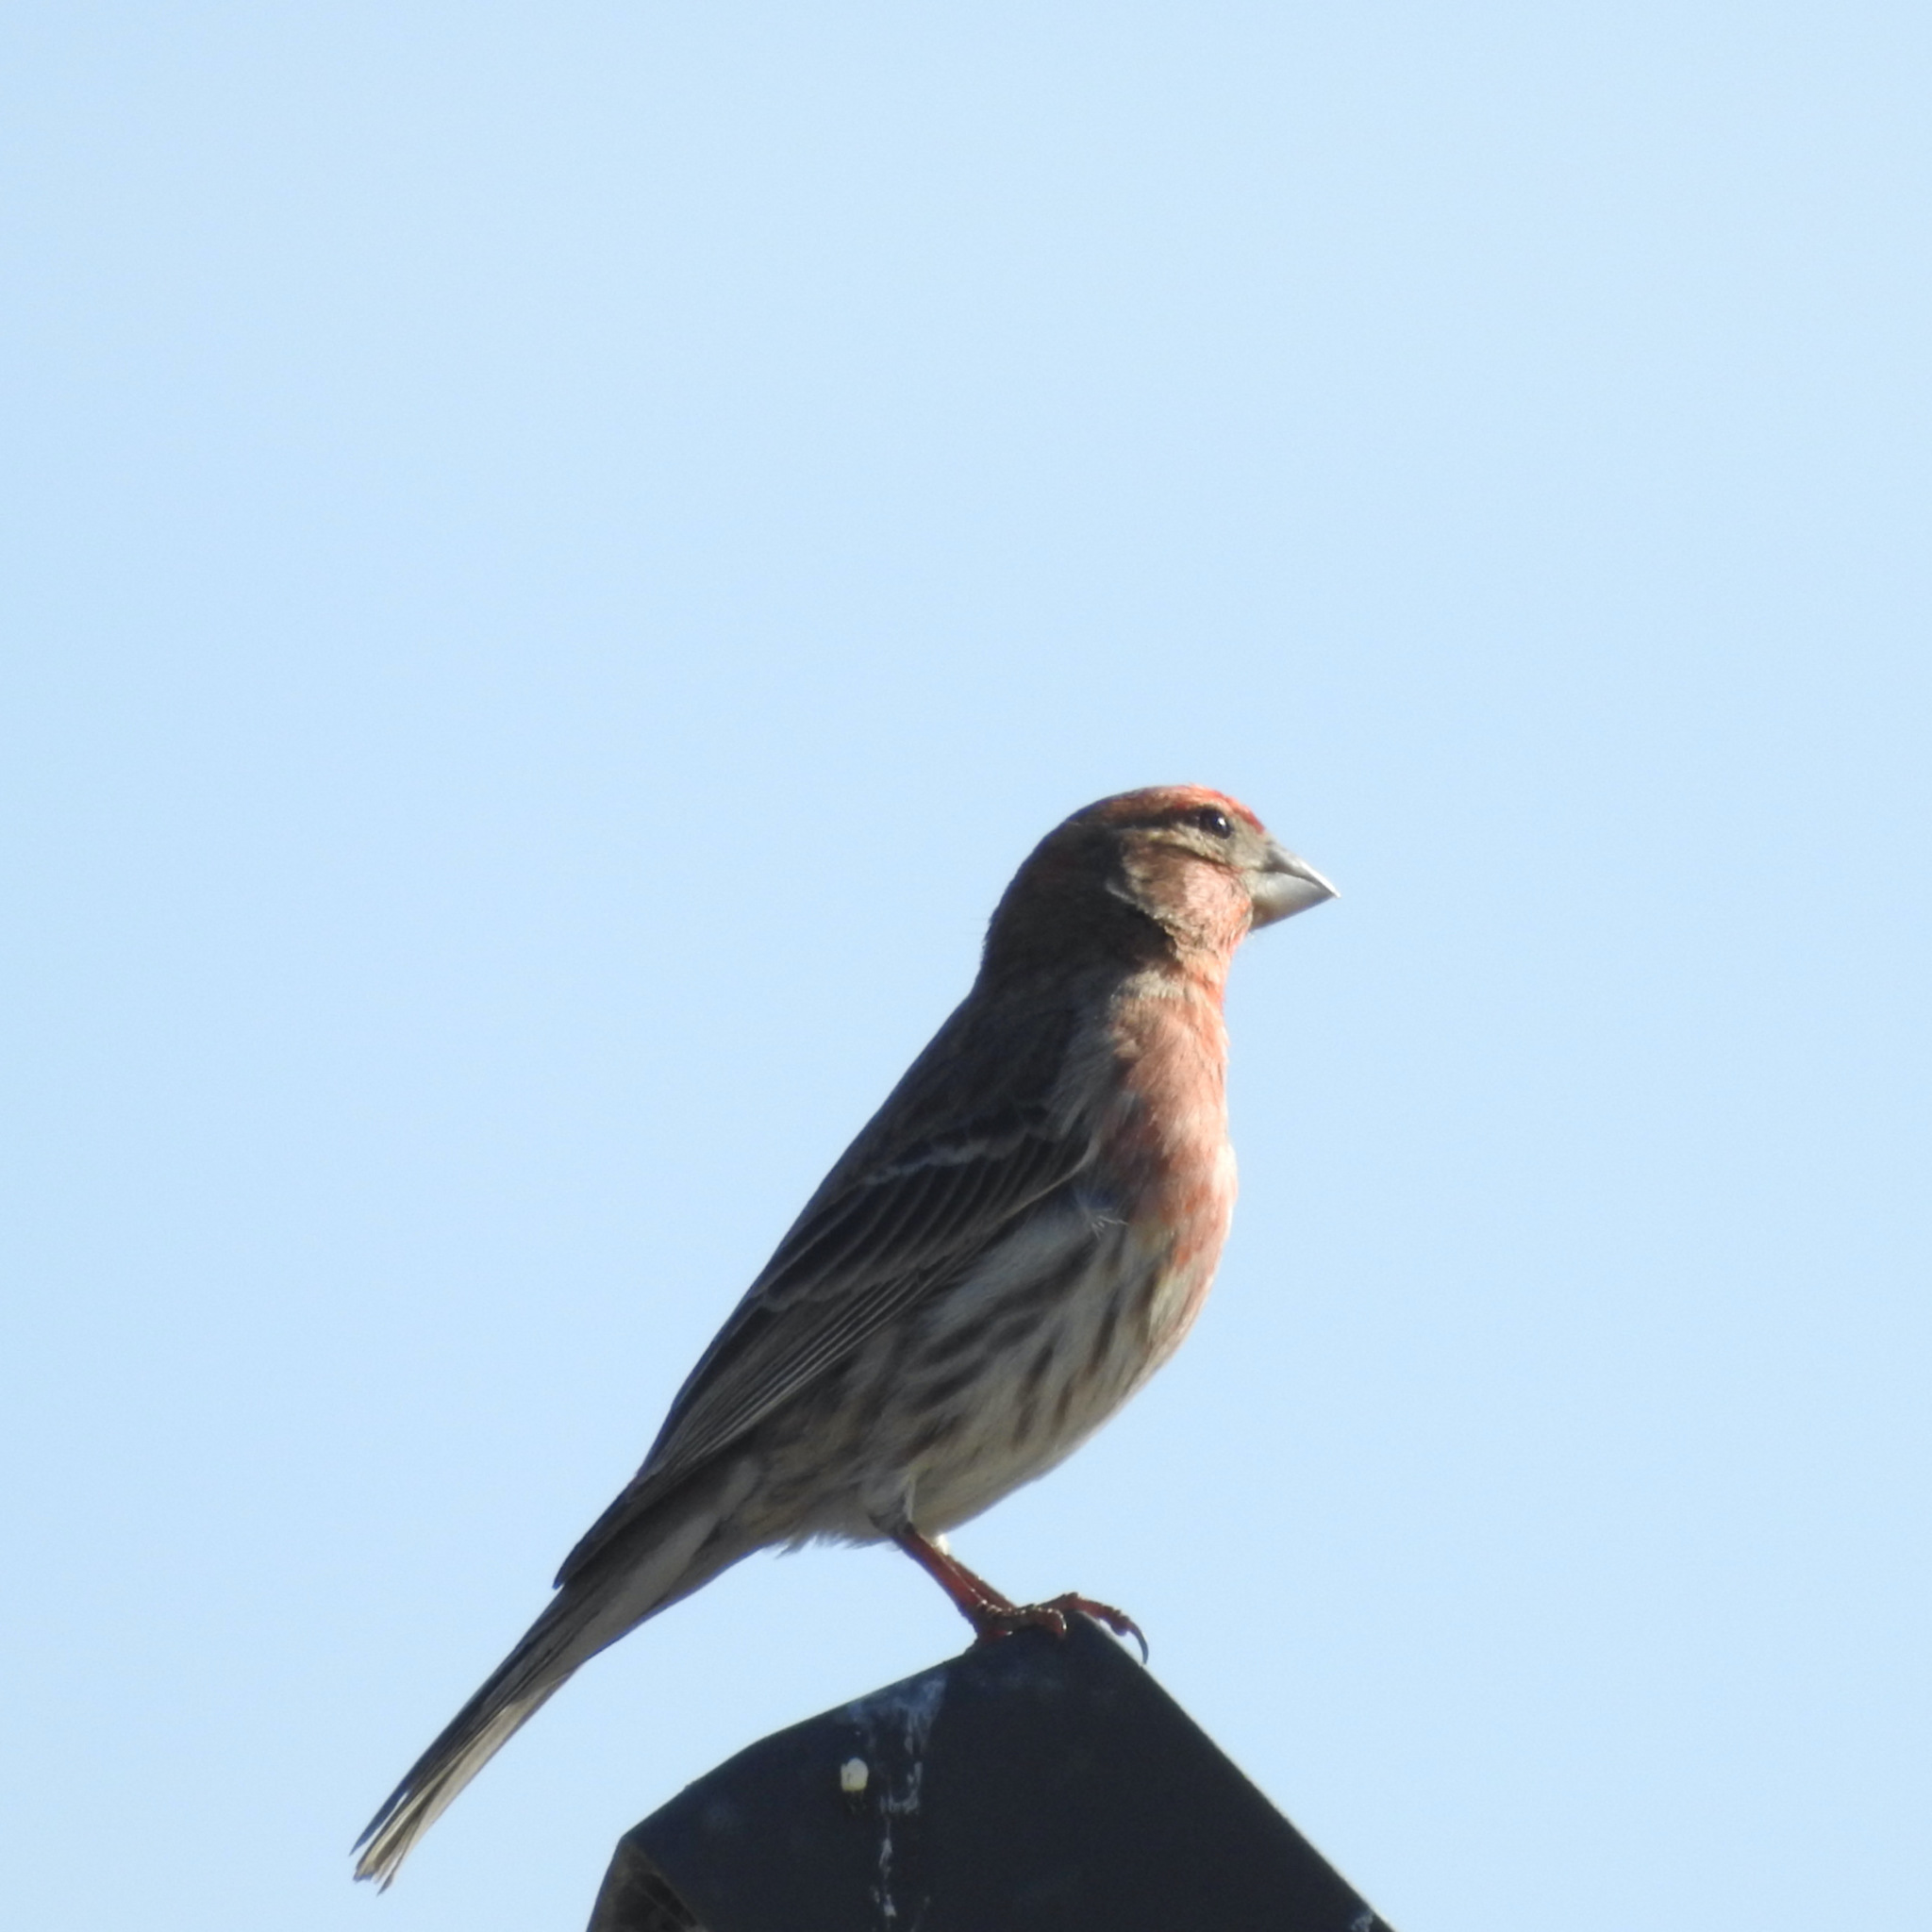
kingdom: Animalia
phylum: Chordata
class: Aves
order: Passeriformes
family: Fringillidae
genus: Haemorhous
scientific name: Haemorhous mexicanus
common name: House finch
